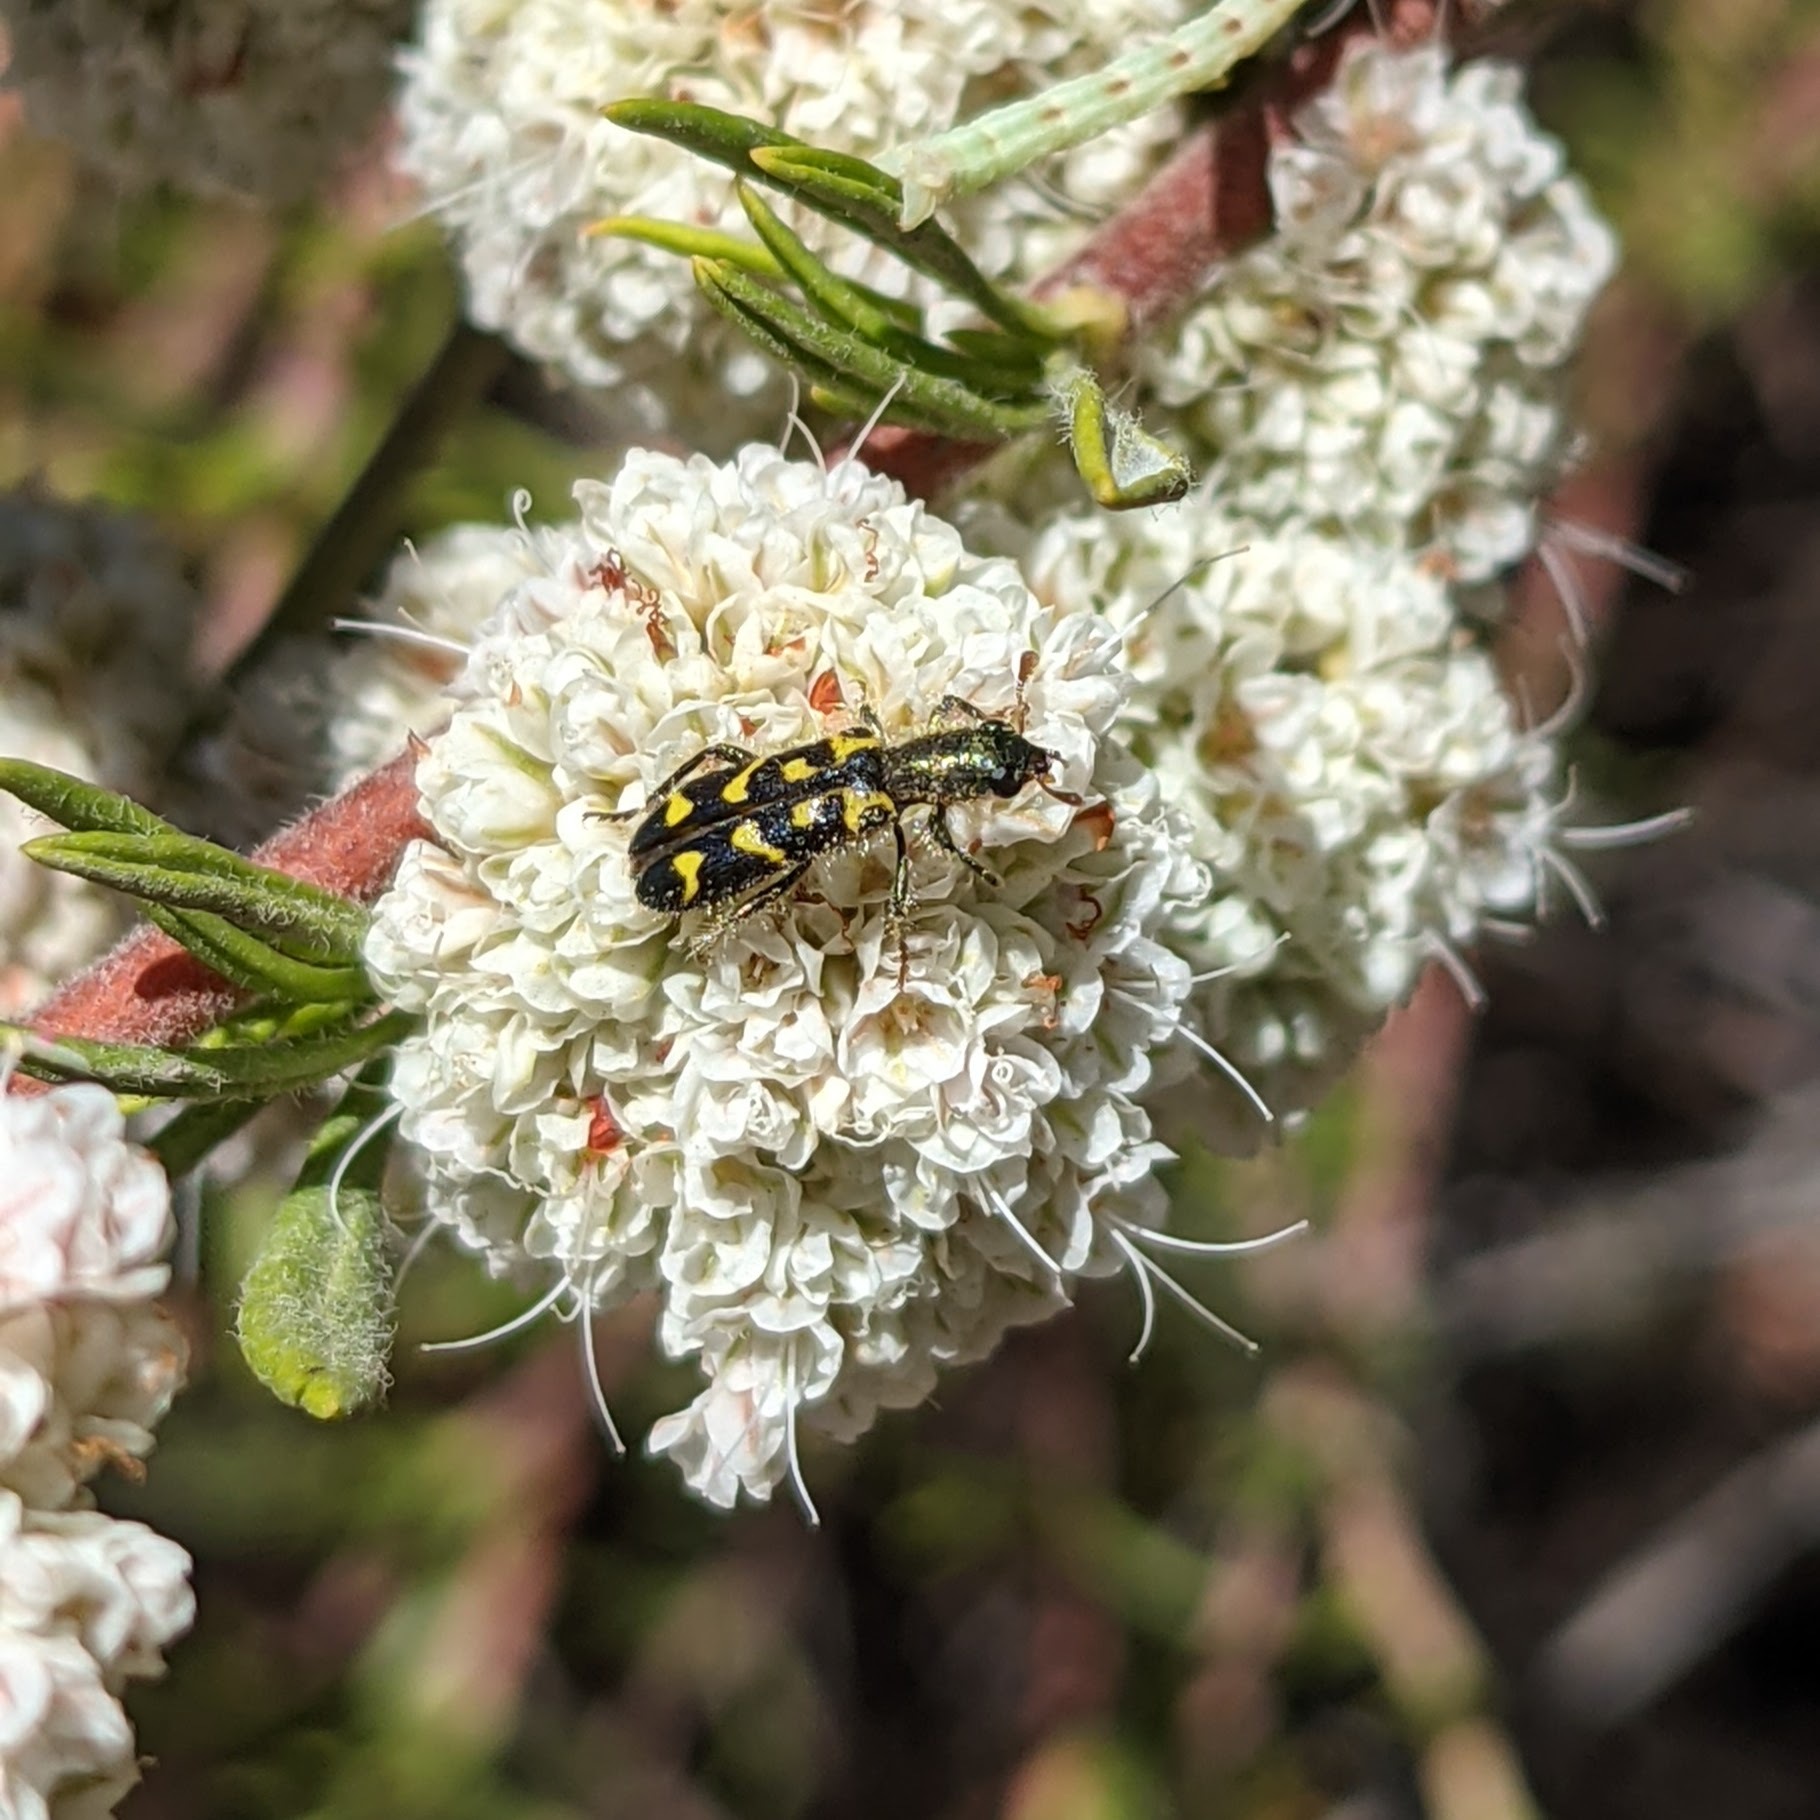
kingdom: Animalia
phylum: Arthropoda
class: Insecta
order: Coleoptera
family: Cleridae
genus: Trichodes
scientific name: Trichodes ornatus
